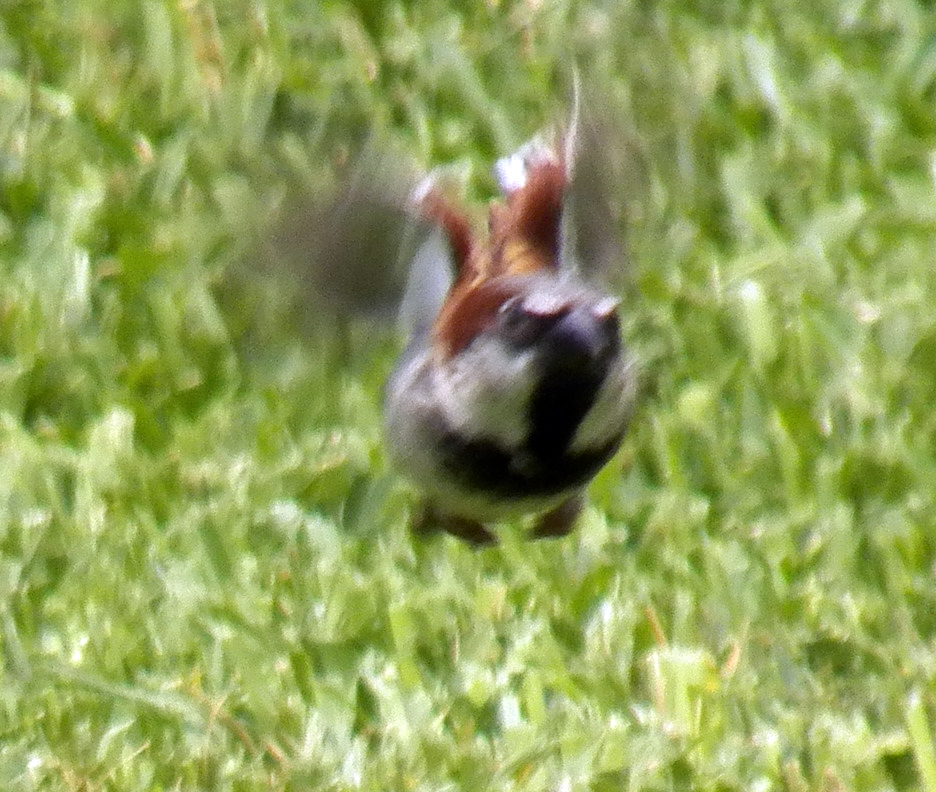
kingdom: Animalia
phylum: Chordata
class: Aves
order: Passeriformes
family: Passeridae
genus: Passer
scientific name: Passer domesticus
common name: House sparrow
